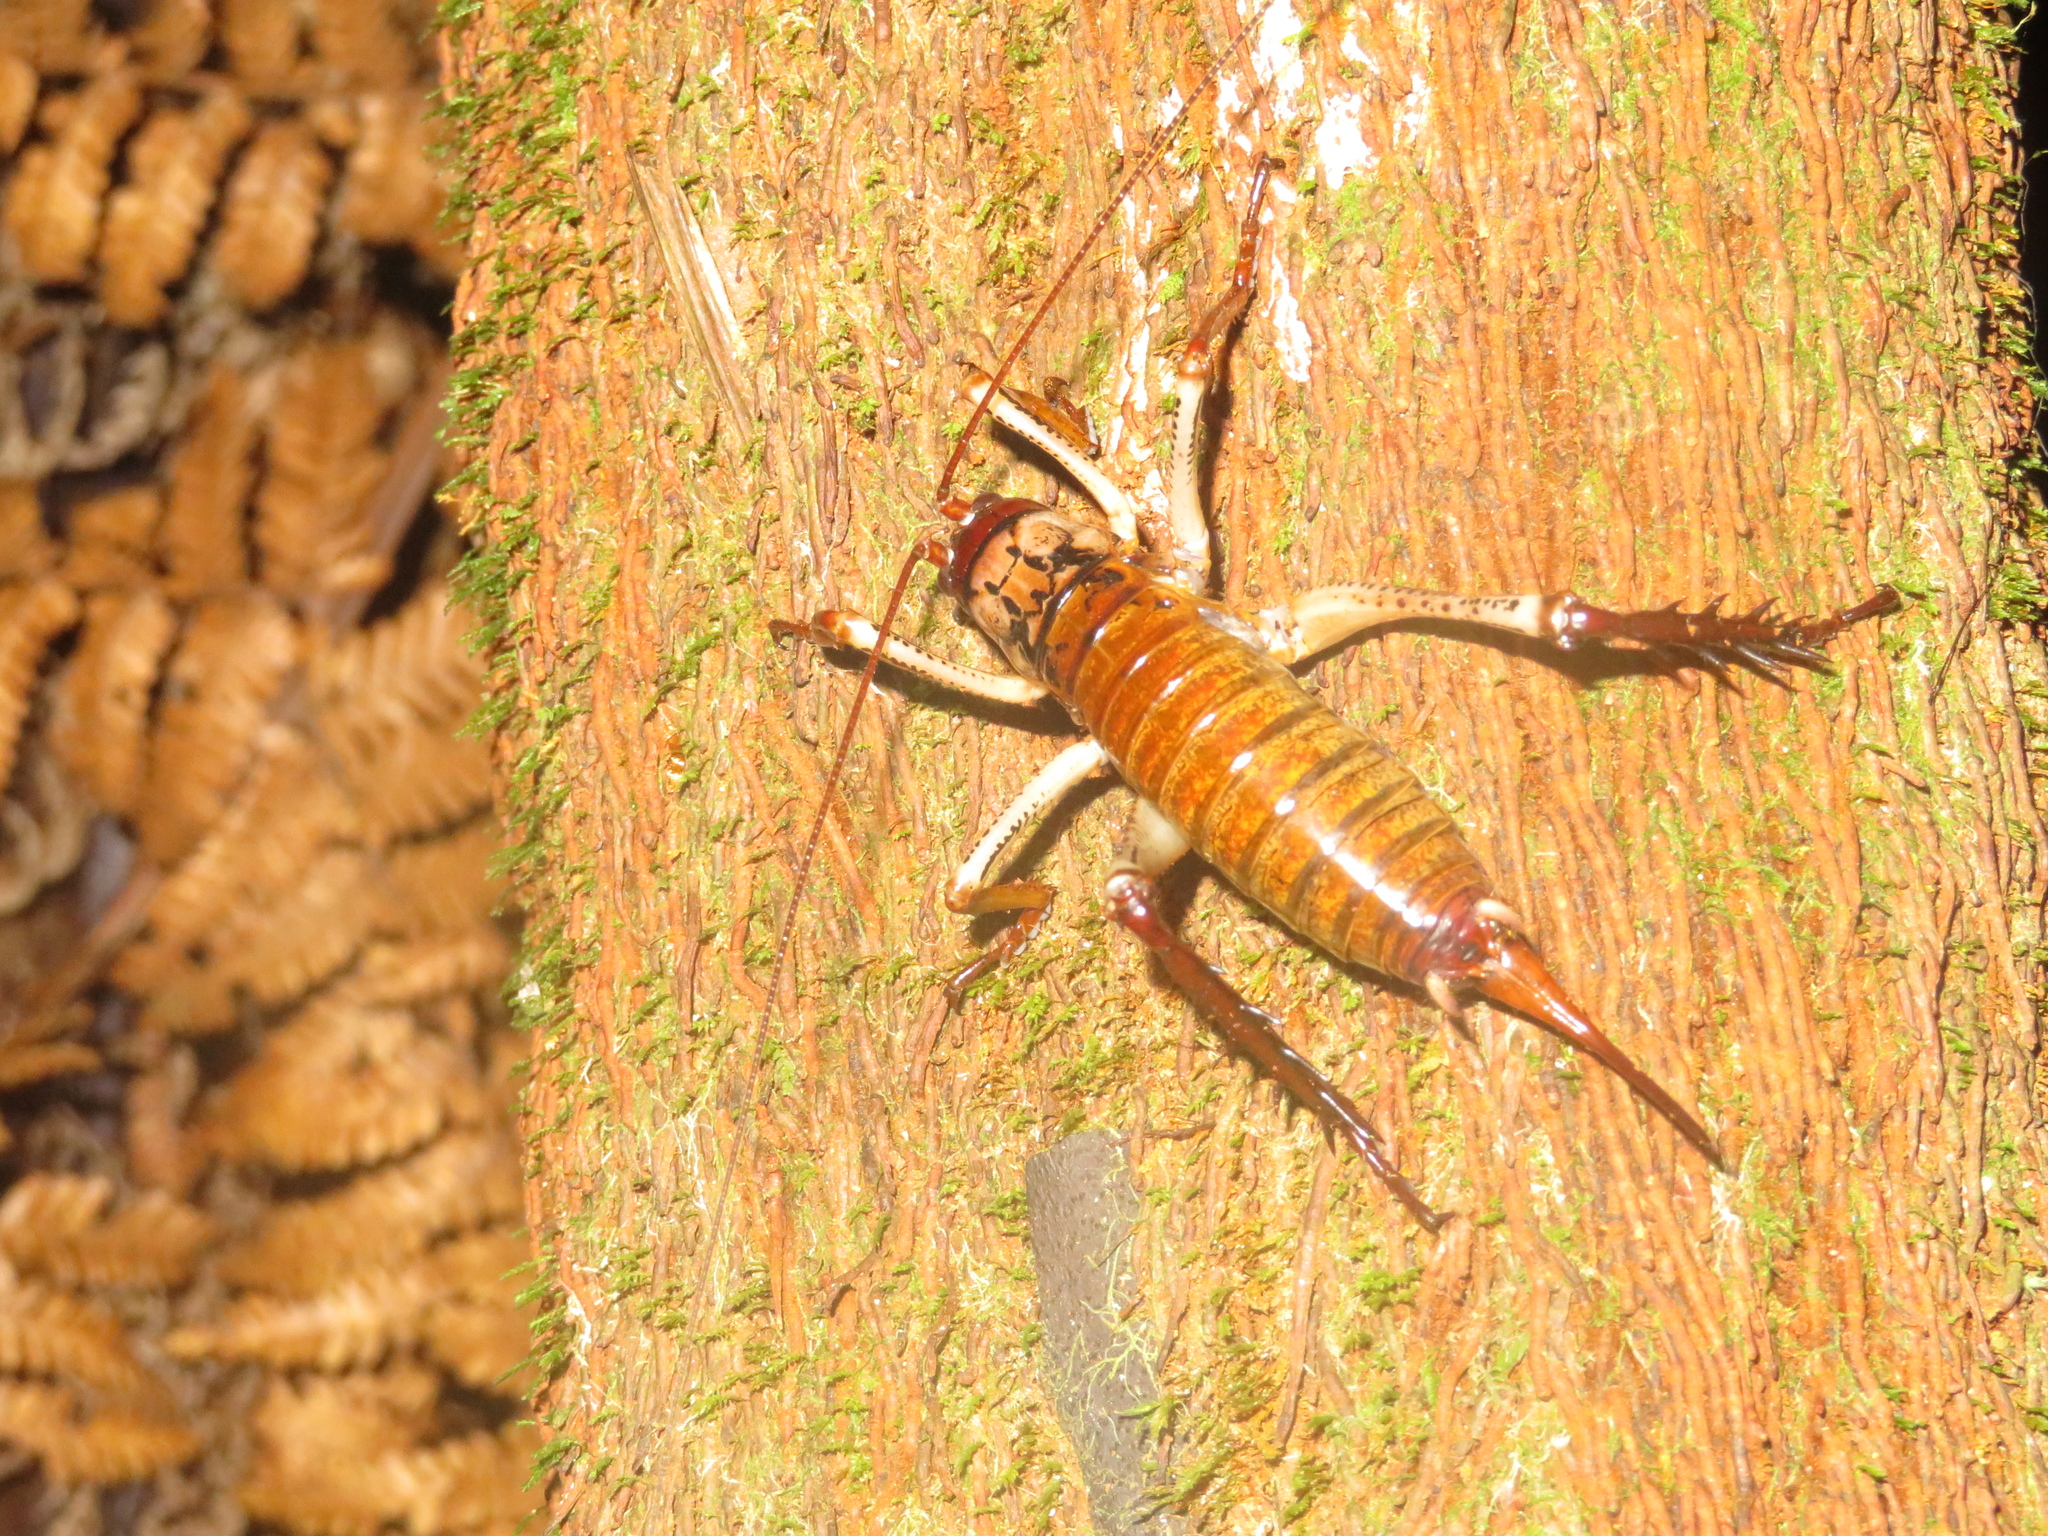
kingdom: Animalia
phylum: Arthropoda
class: Insecta
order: Orthoptera
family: Anostostomatidae
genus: Hemideina
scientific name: Hemideina thoracica
